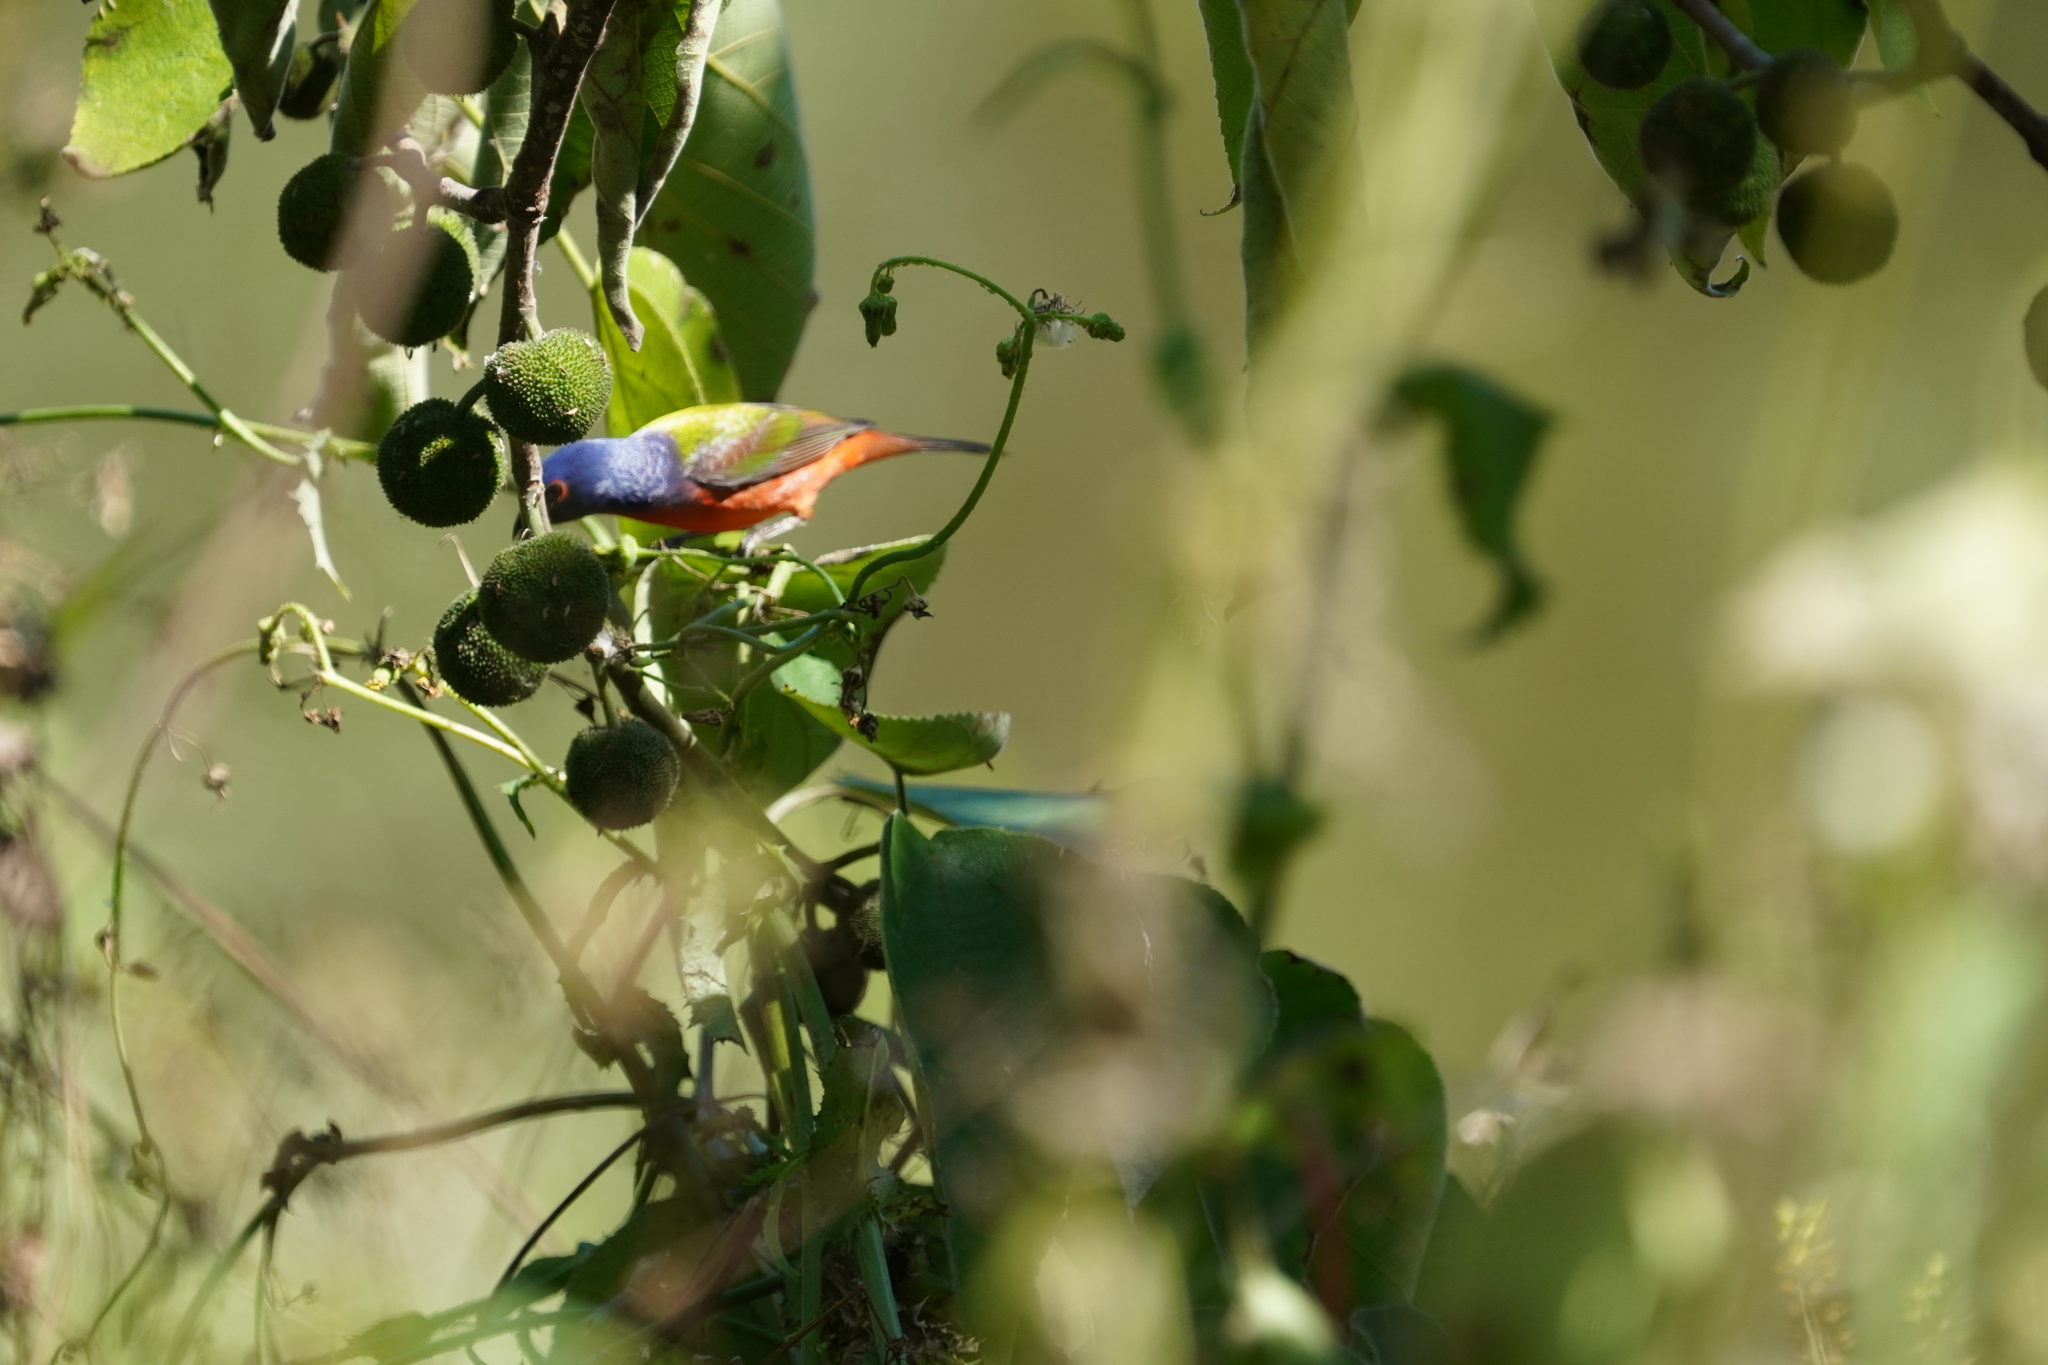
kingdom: Animalia
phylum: Chordata
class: Aves
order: Passeriformes
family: Cardinalidae
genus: Passerina
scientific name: Passerina ciris
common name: Painted bunting
